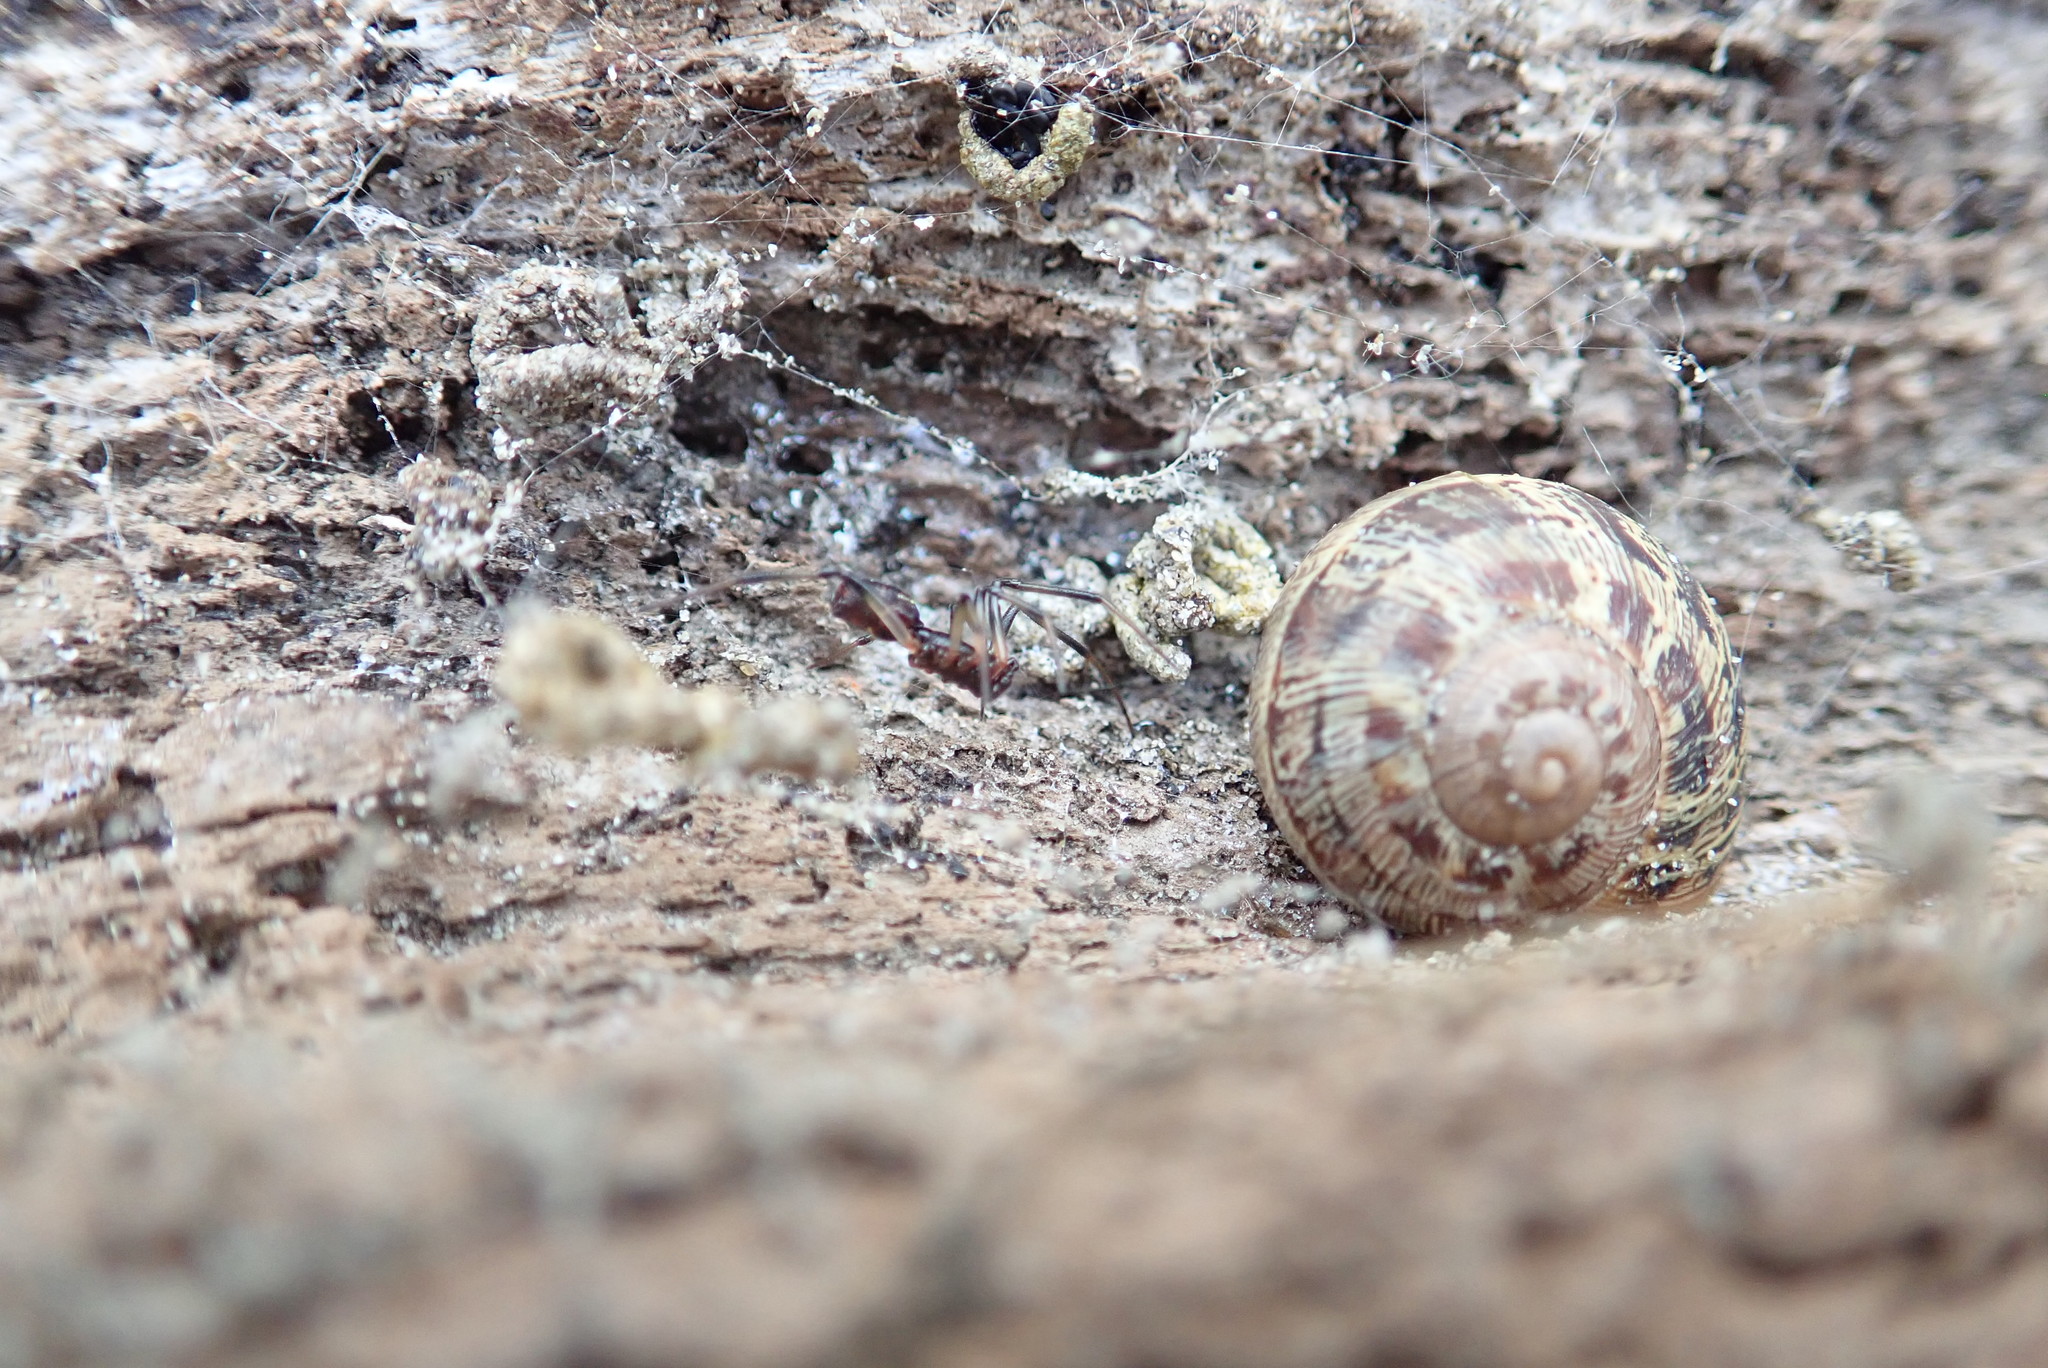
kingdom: Animalia
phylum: Arthropoda
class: Arachnida
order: Araneae
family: Theridiidae
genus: Steatoda
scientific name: Steatoda capensis
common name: Cobweb weaver
